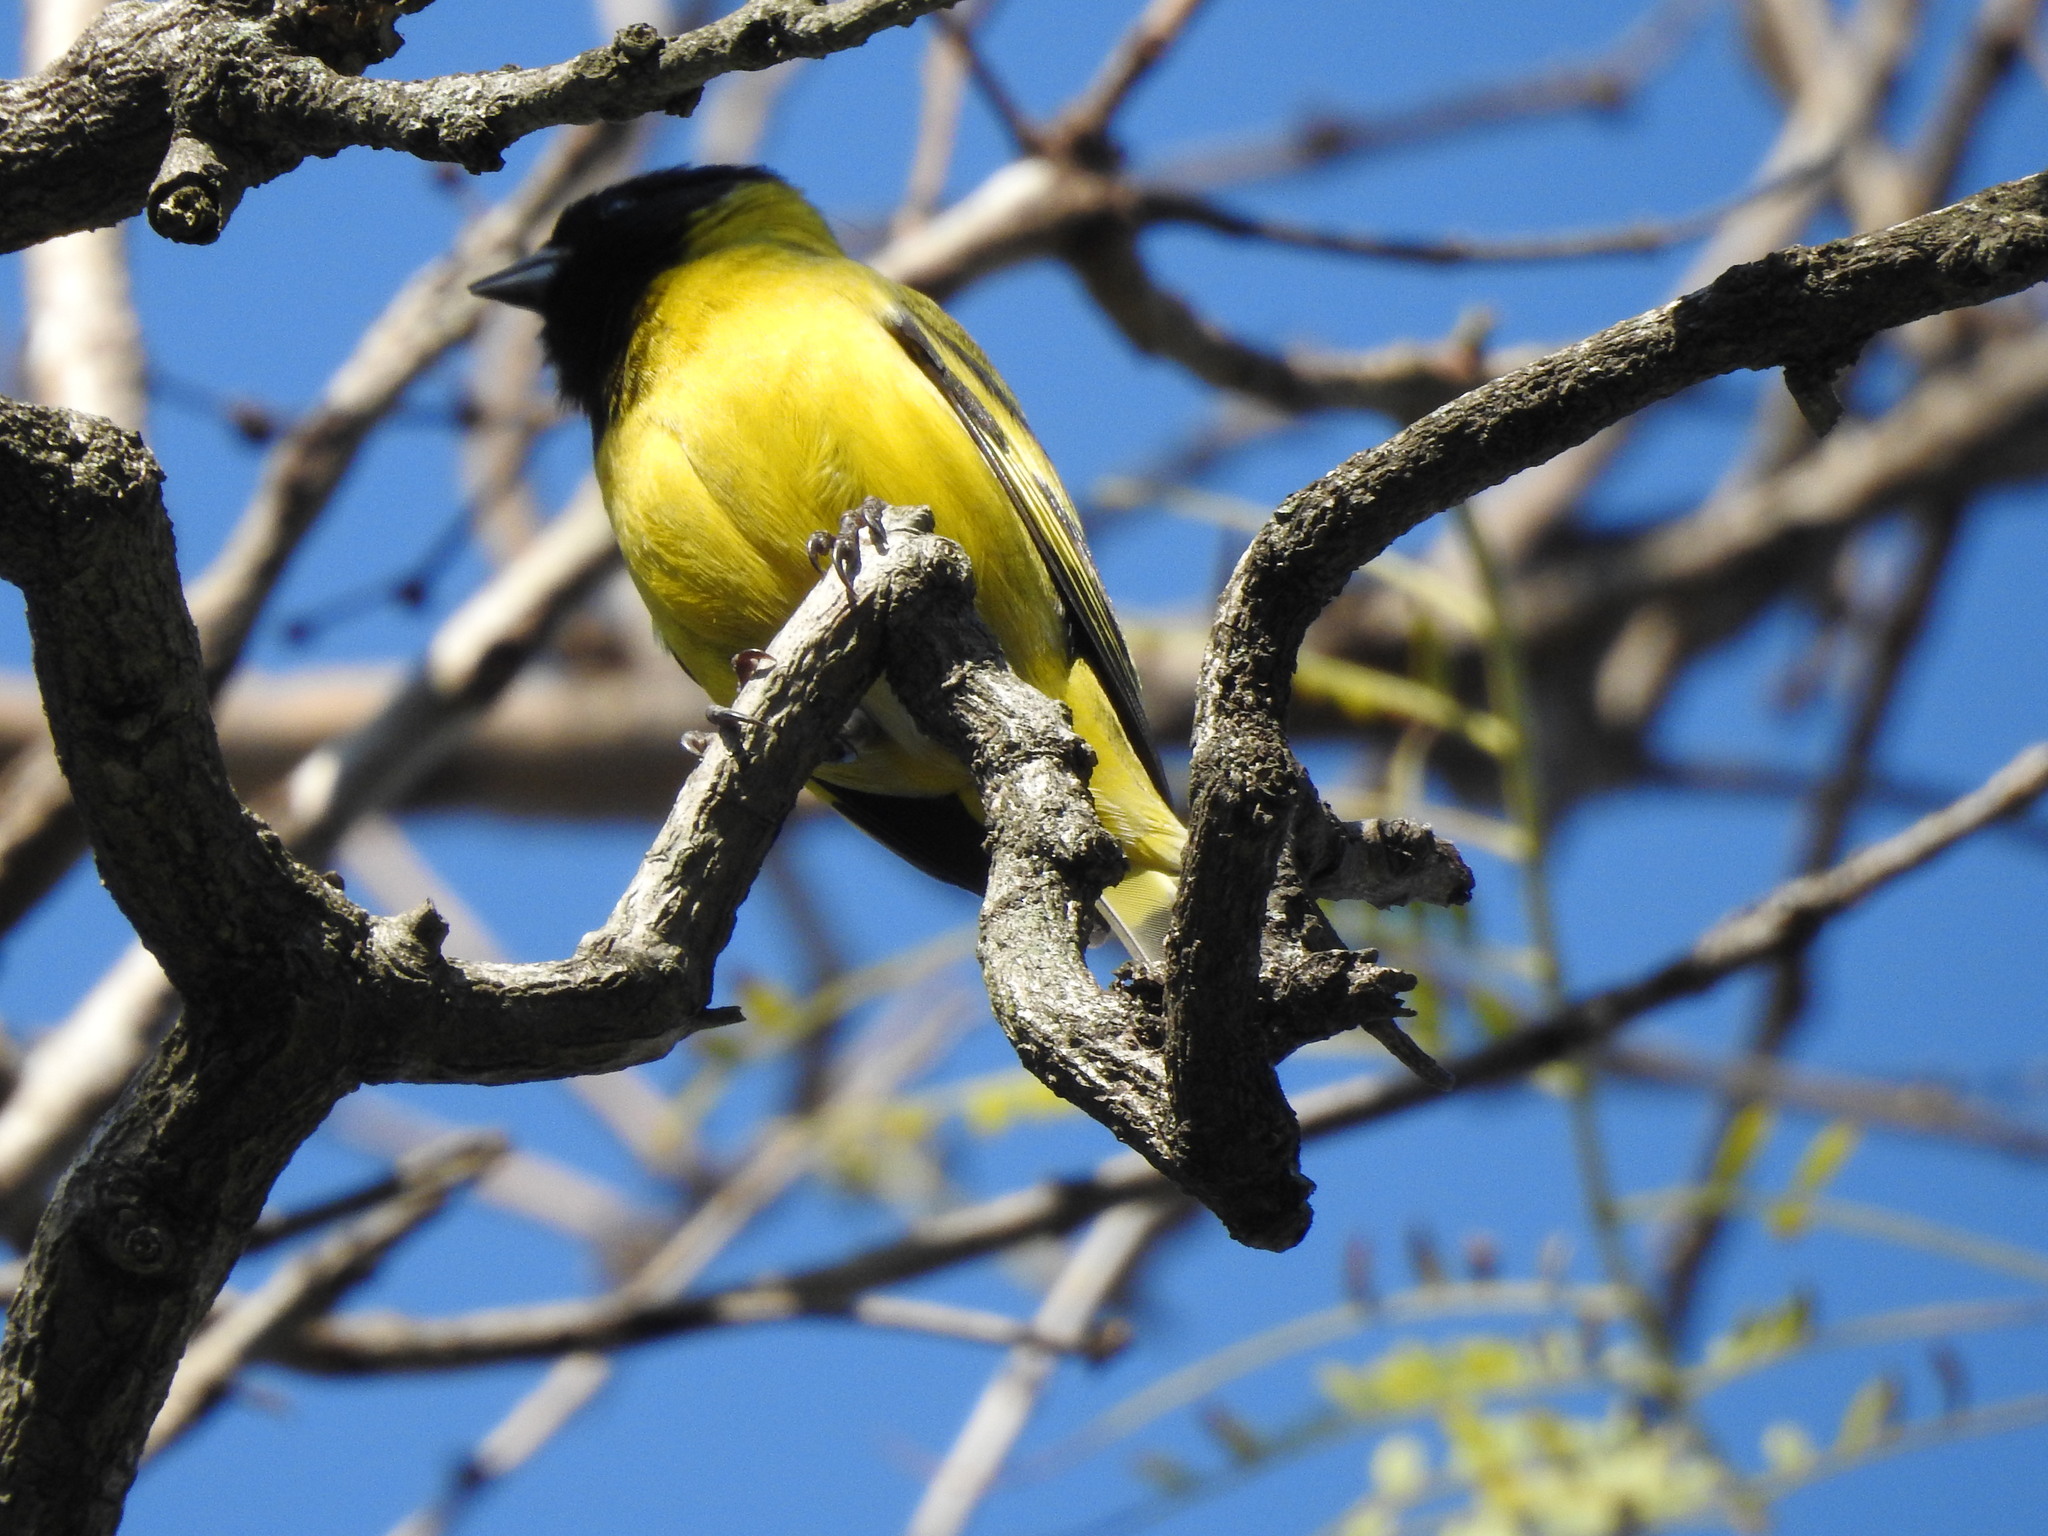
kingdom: Animalia
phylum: Chordata
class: Aves
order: Passeriformes
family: Fringillidae
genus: Spinus
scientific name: Spinus magellanicus
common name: Hooded siskin
